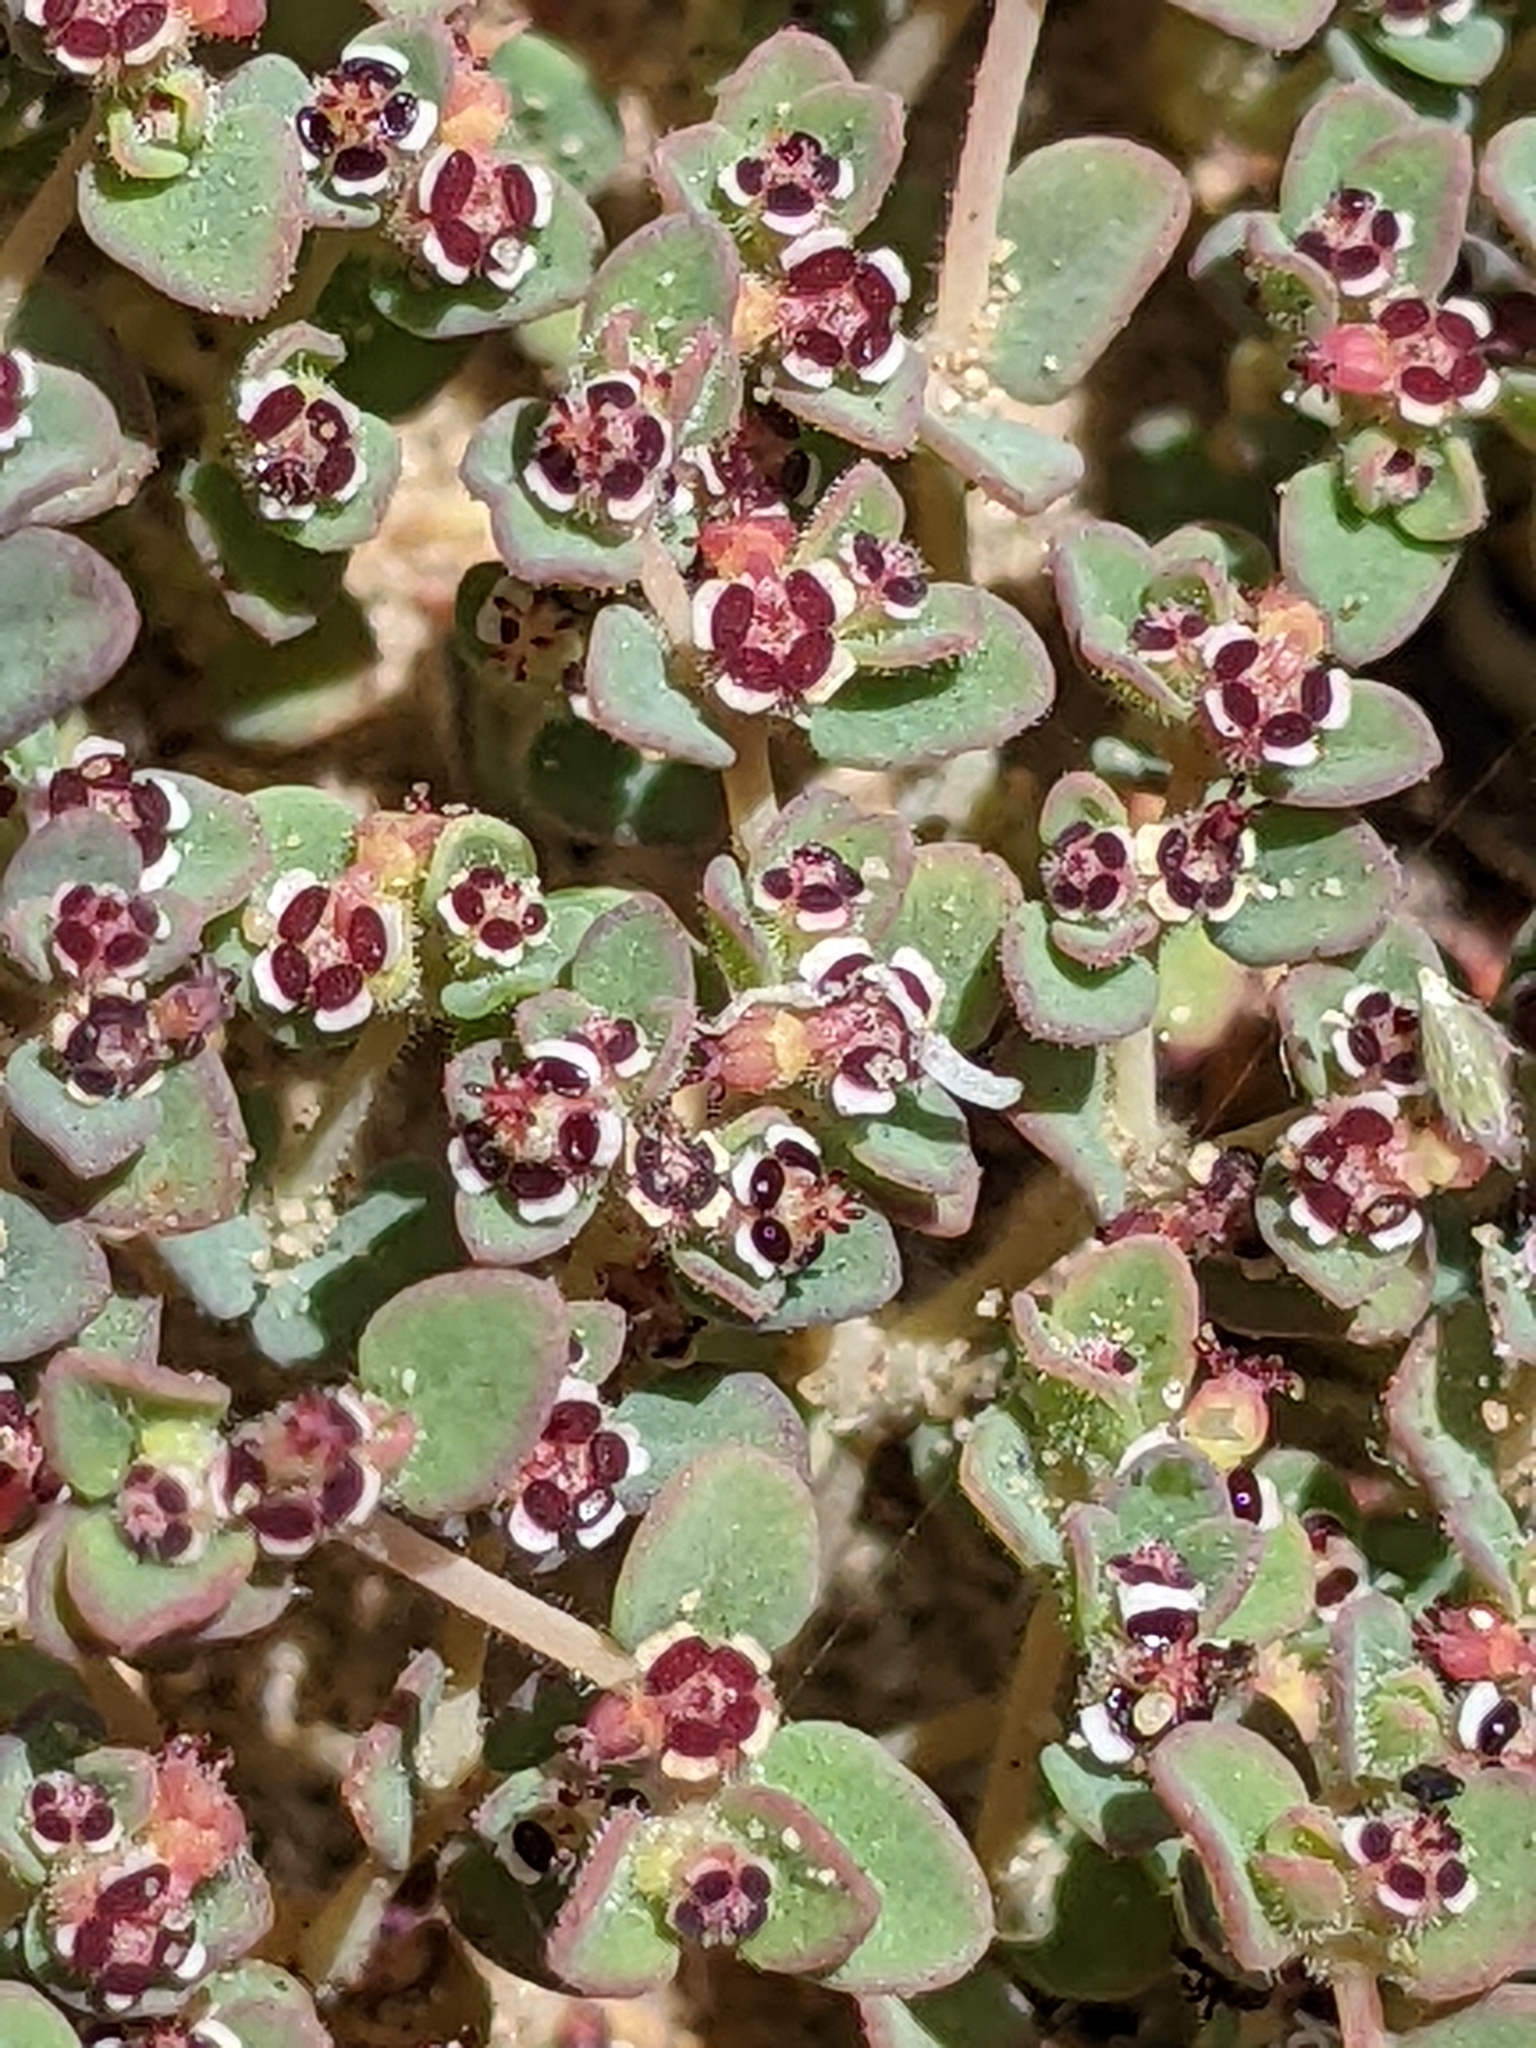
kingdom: Plantae
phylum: Tracheophyta
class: Magnoliopsida
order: Malpighiales
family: Euphorbiaceae
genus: Euphorbia
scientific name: Euphorbia polycarpa
